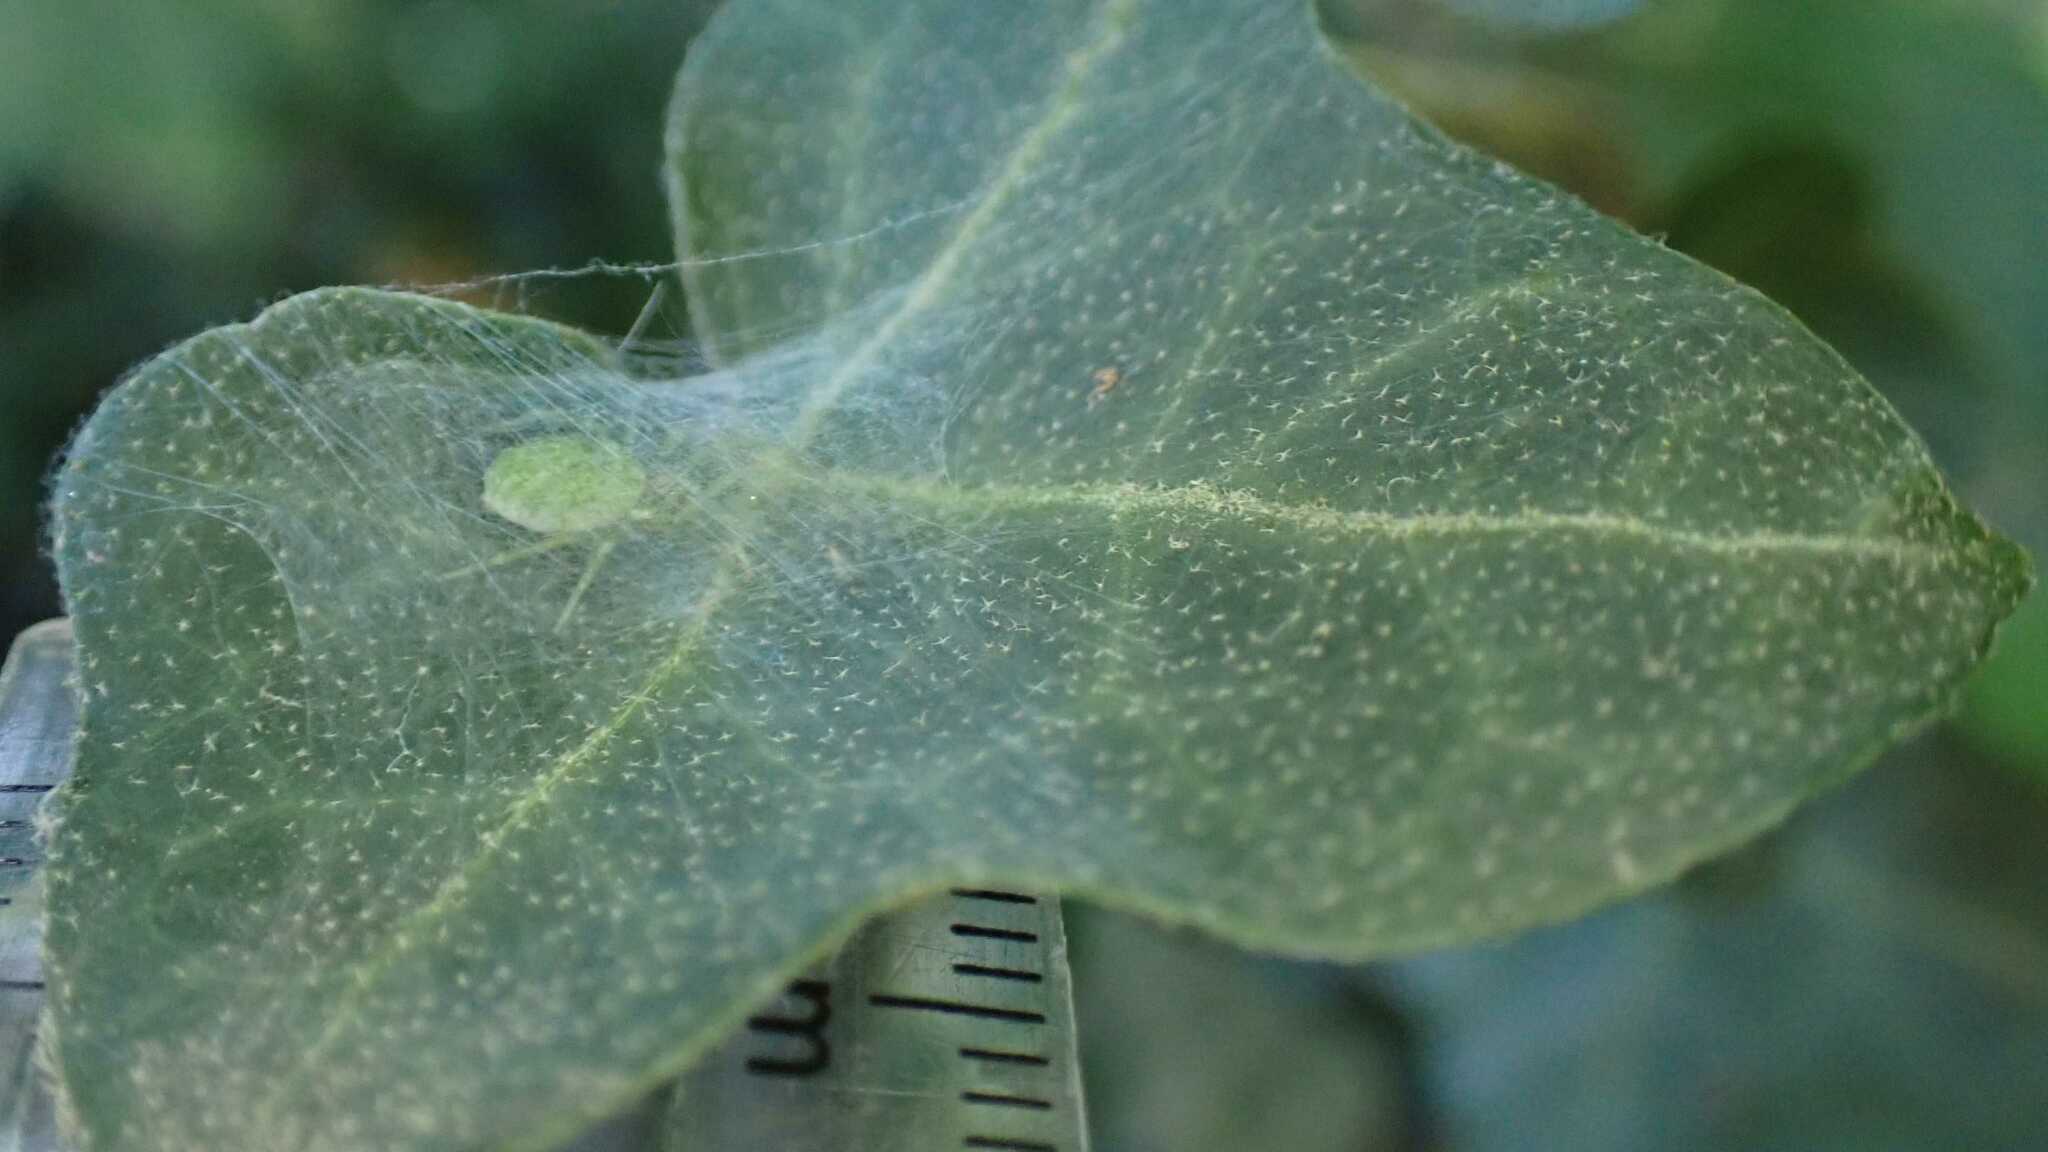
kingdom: Animalia
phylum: Arthropoda
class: Arachnida
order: Araneae
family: Dictynidae
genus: Nigma
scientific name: Nigma walckenaeri
